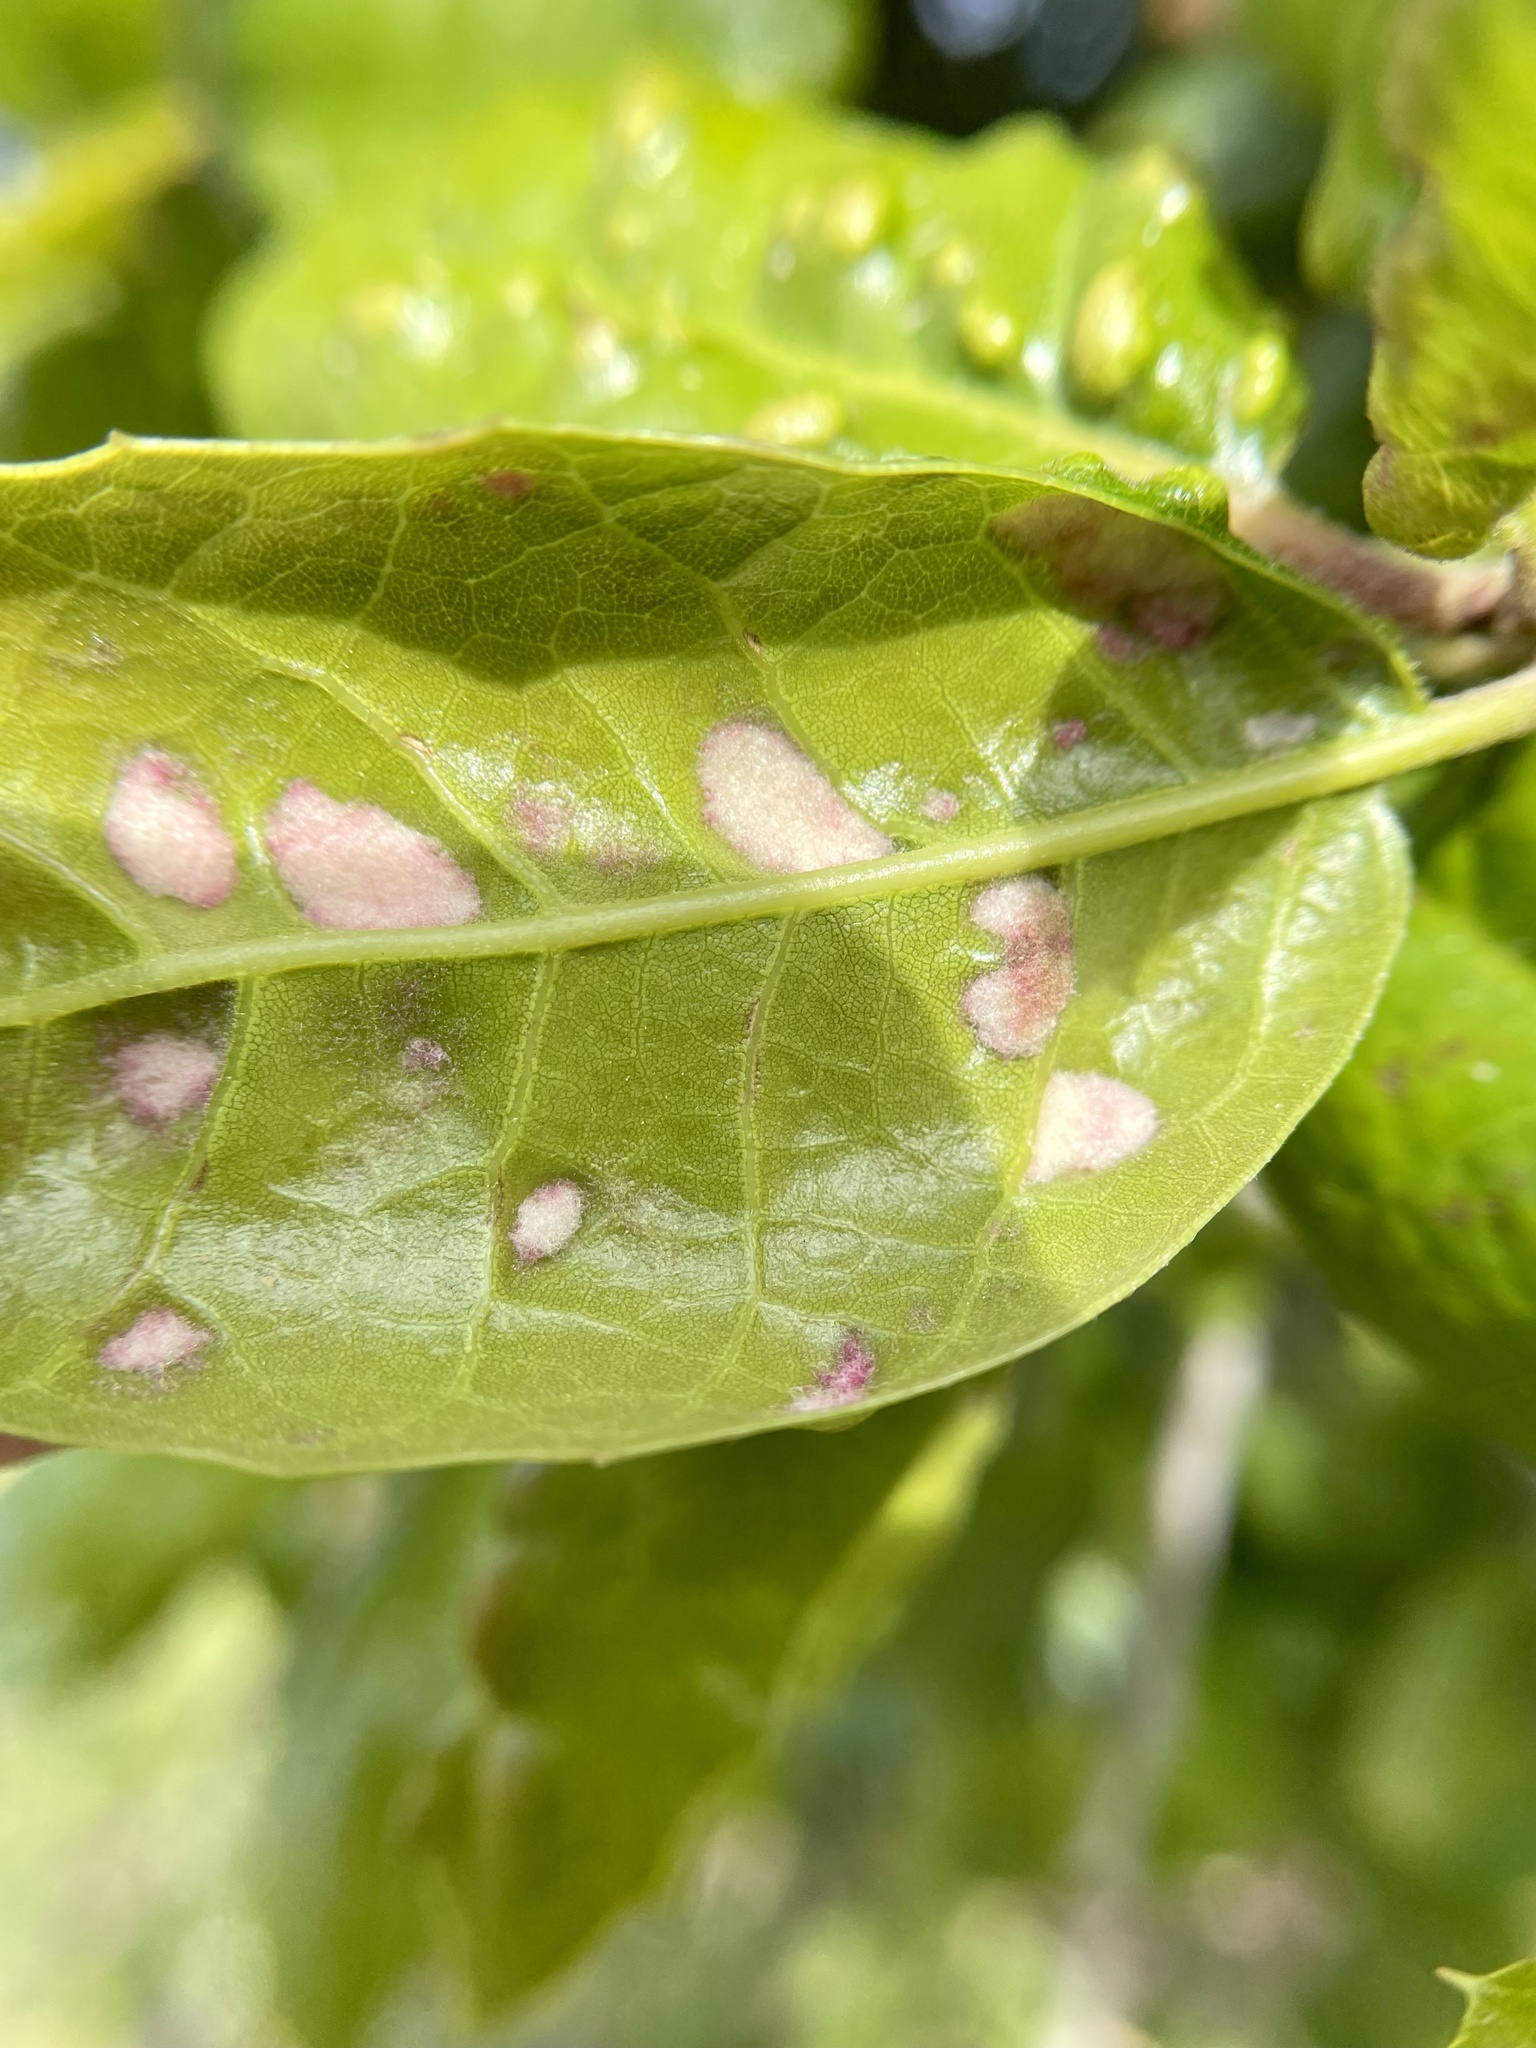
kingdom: Animalia
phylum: Arthropoda
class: Arachnida
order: Trombidiformes
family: Eriophyidae
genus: Aceria
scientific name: Aceria
